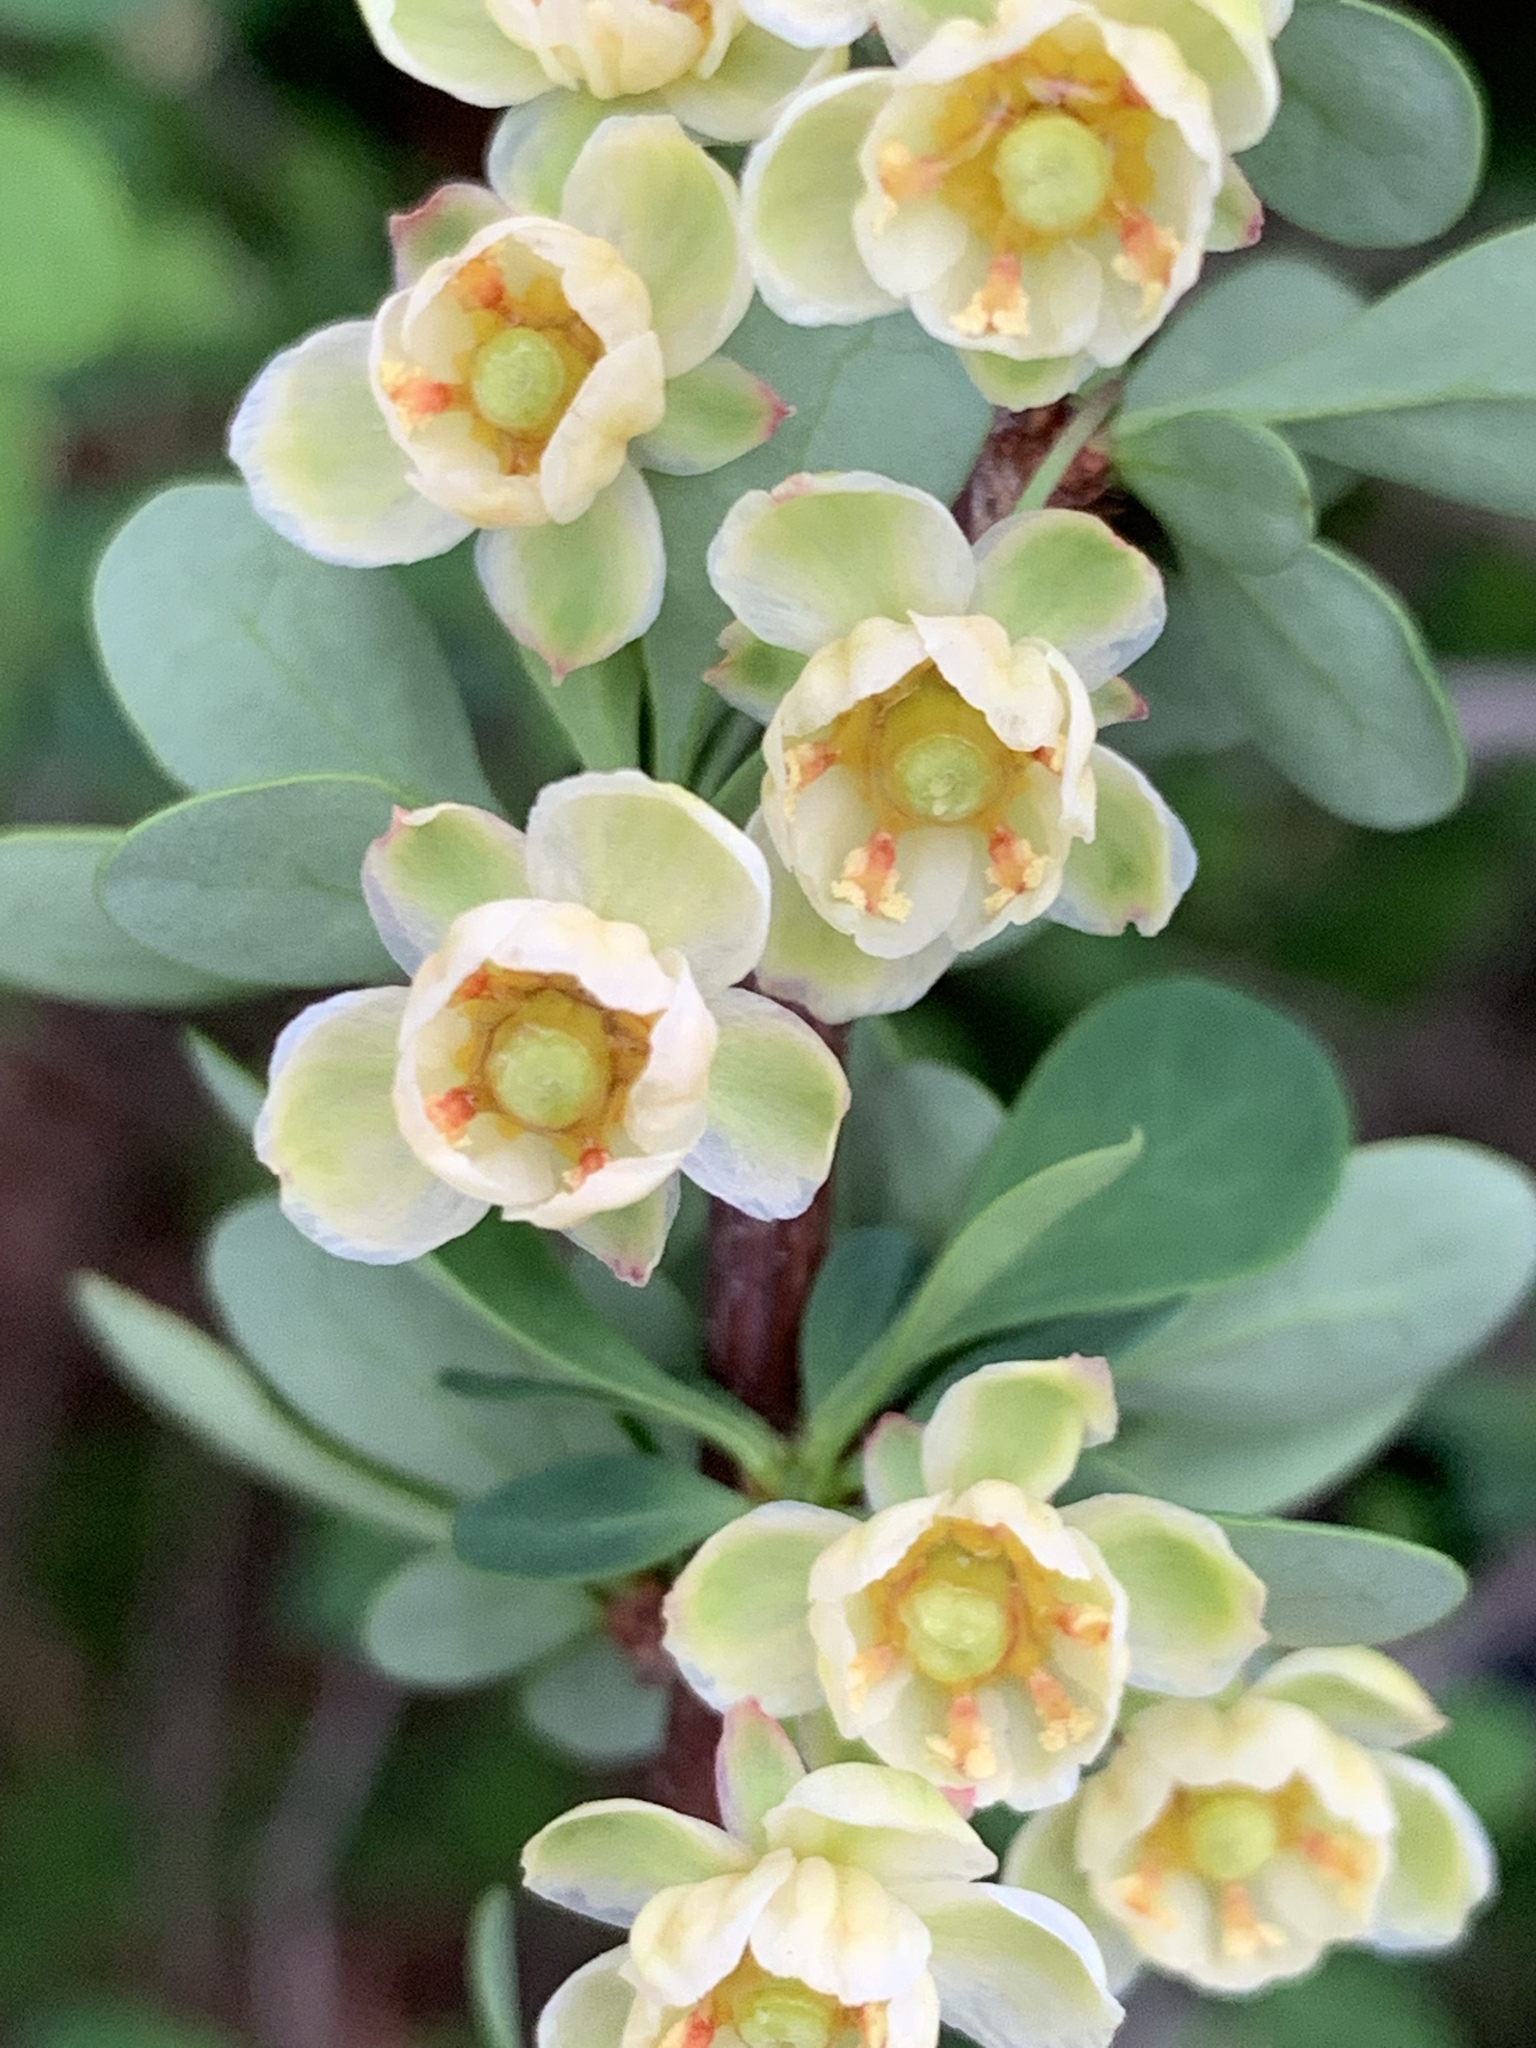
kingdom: Plantae
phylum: Tracheophyta
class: Magnoliopsida
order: Ranunculales
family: Berberidaceae
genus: Berberis
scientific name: Berberis thunbergii
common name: Japanese barberry
